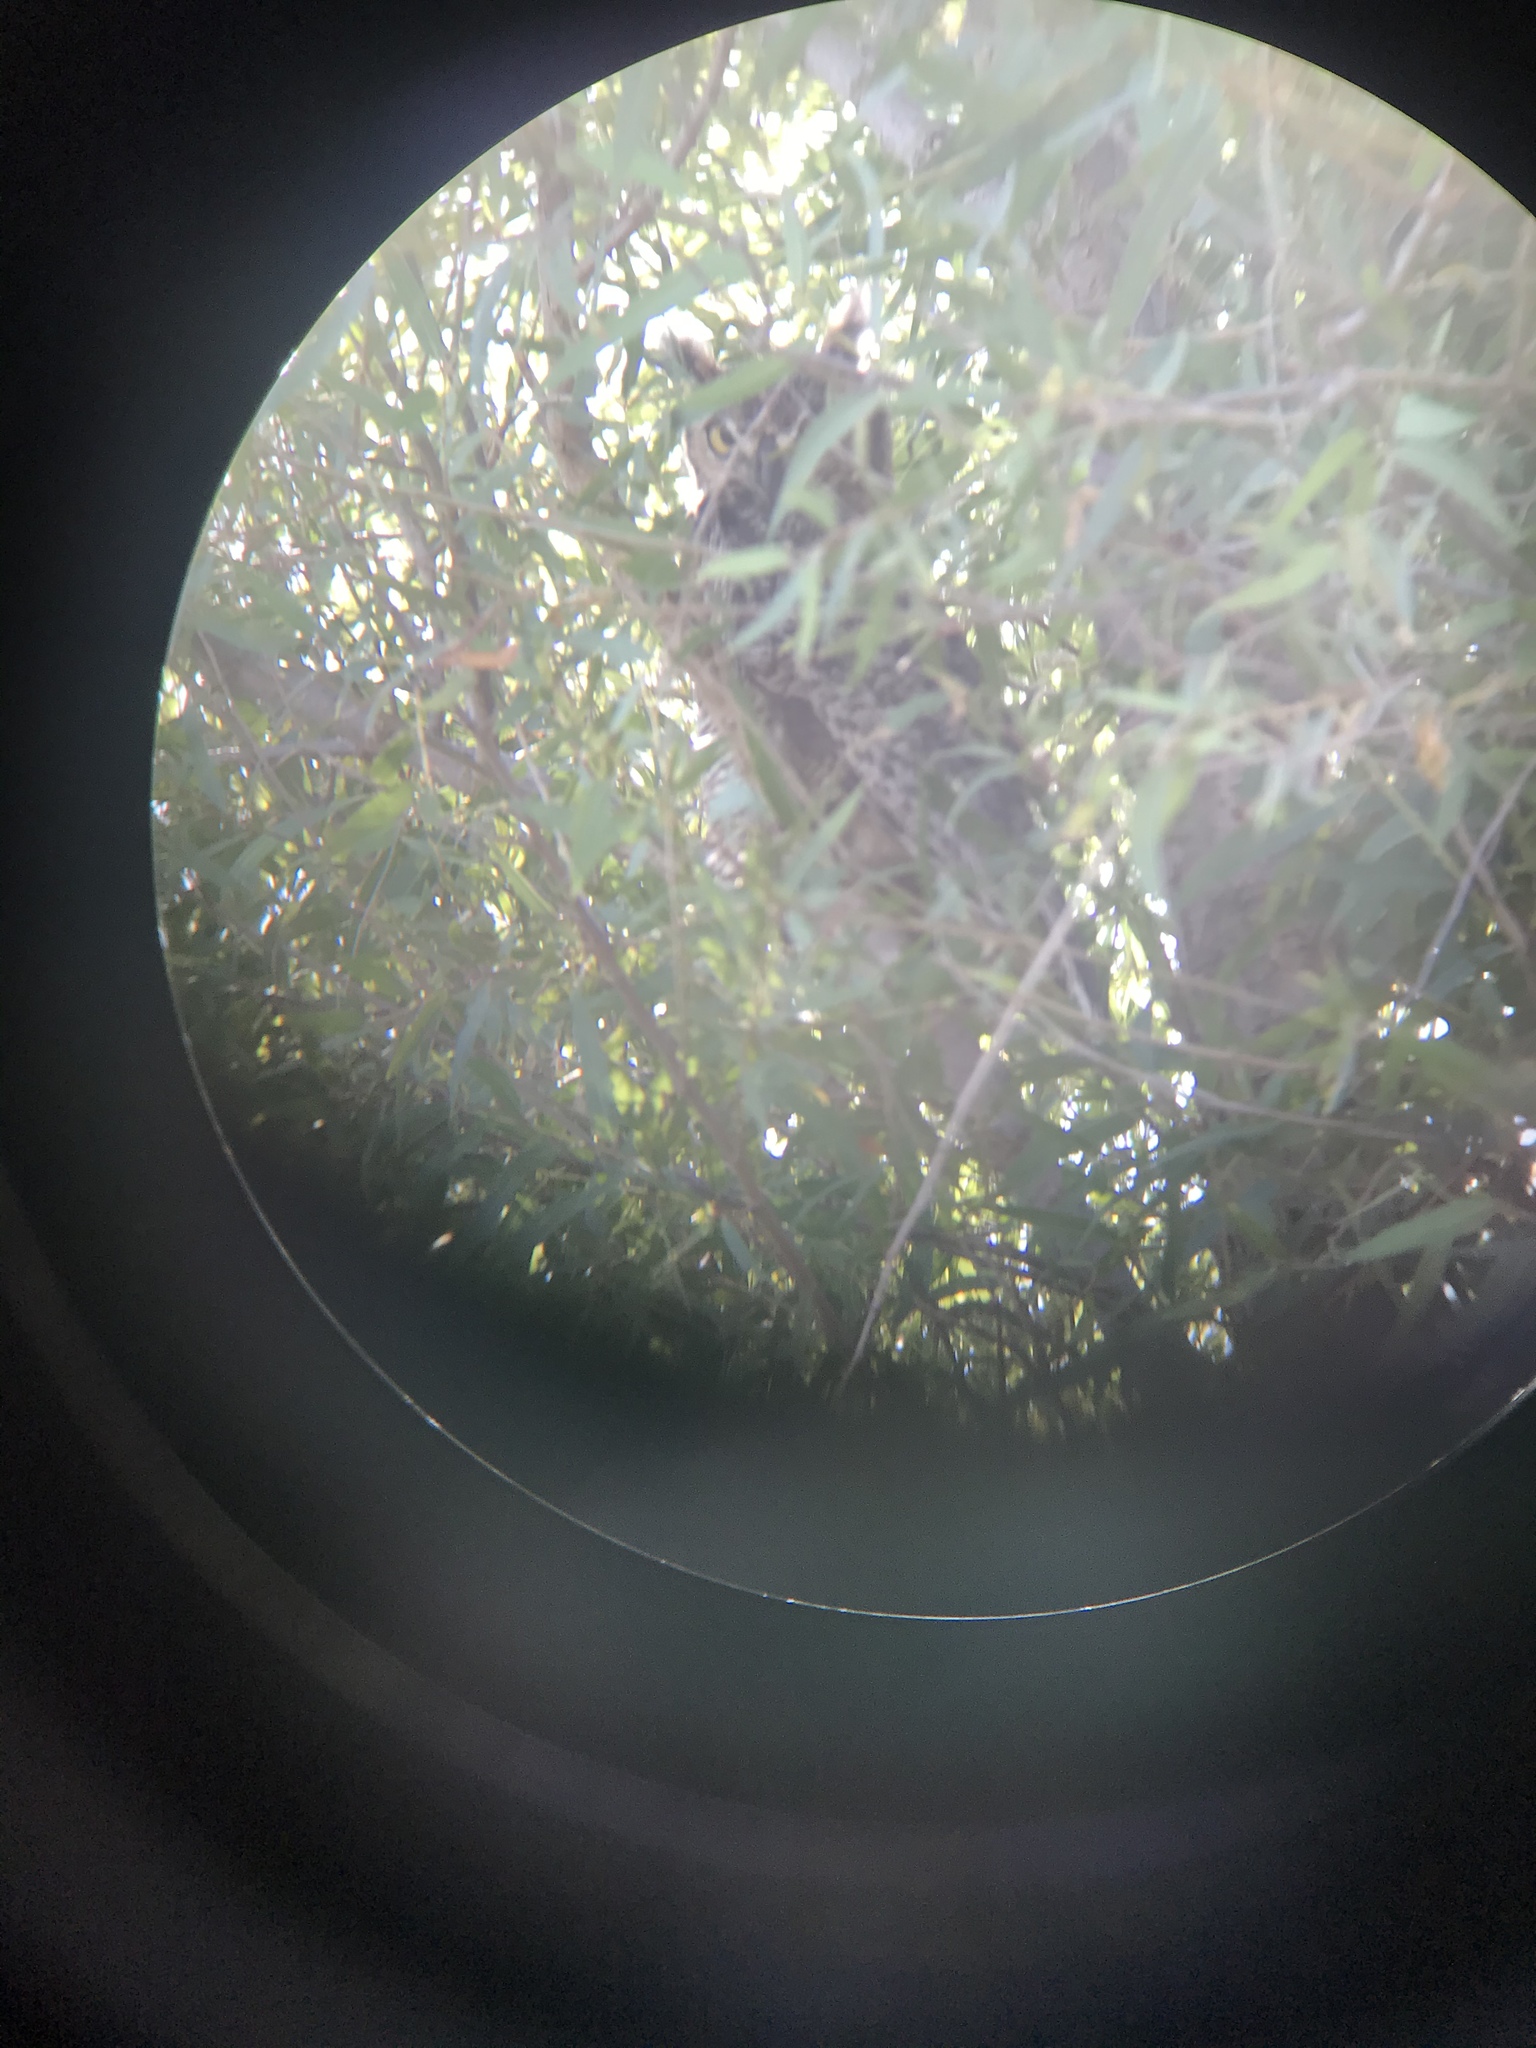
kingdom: Animalia
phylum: Chordata
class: Aves
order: Strigiformes
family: Strigidae
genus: Bubo
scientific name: Bubo virginianus
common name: Great horned owl
